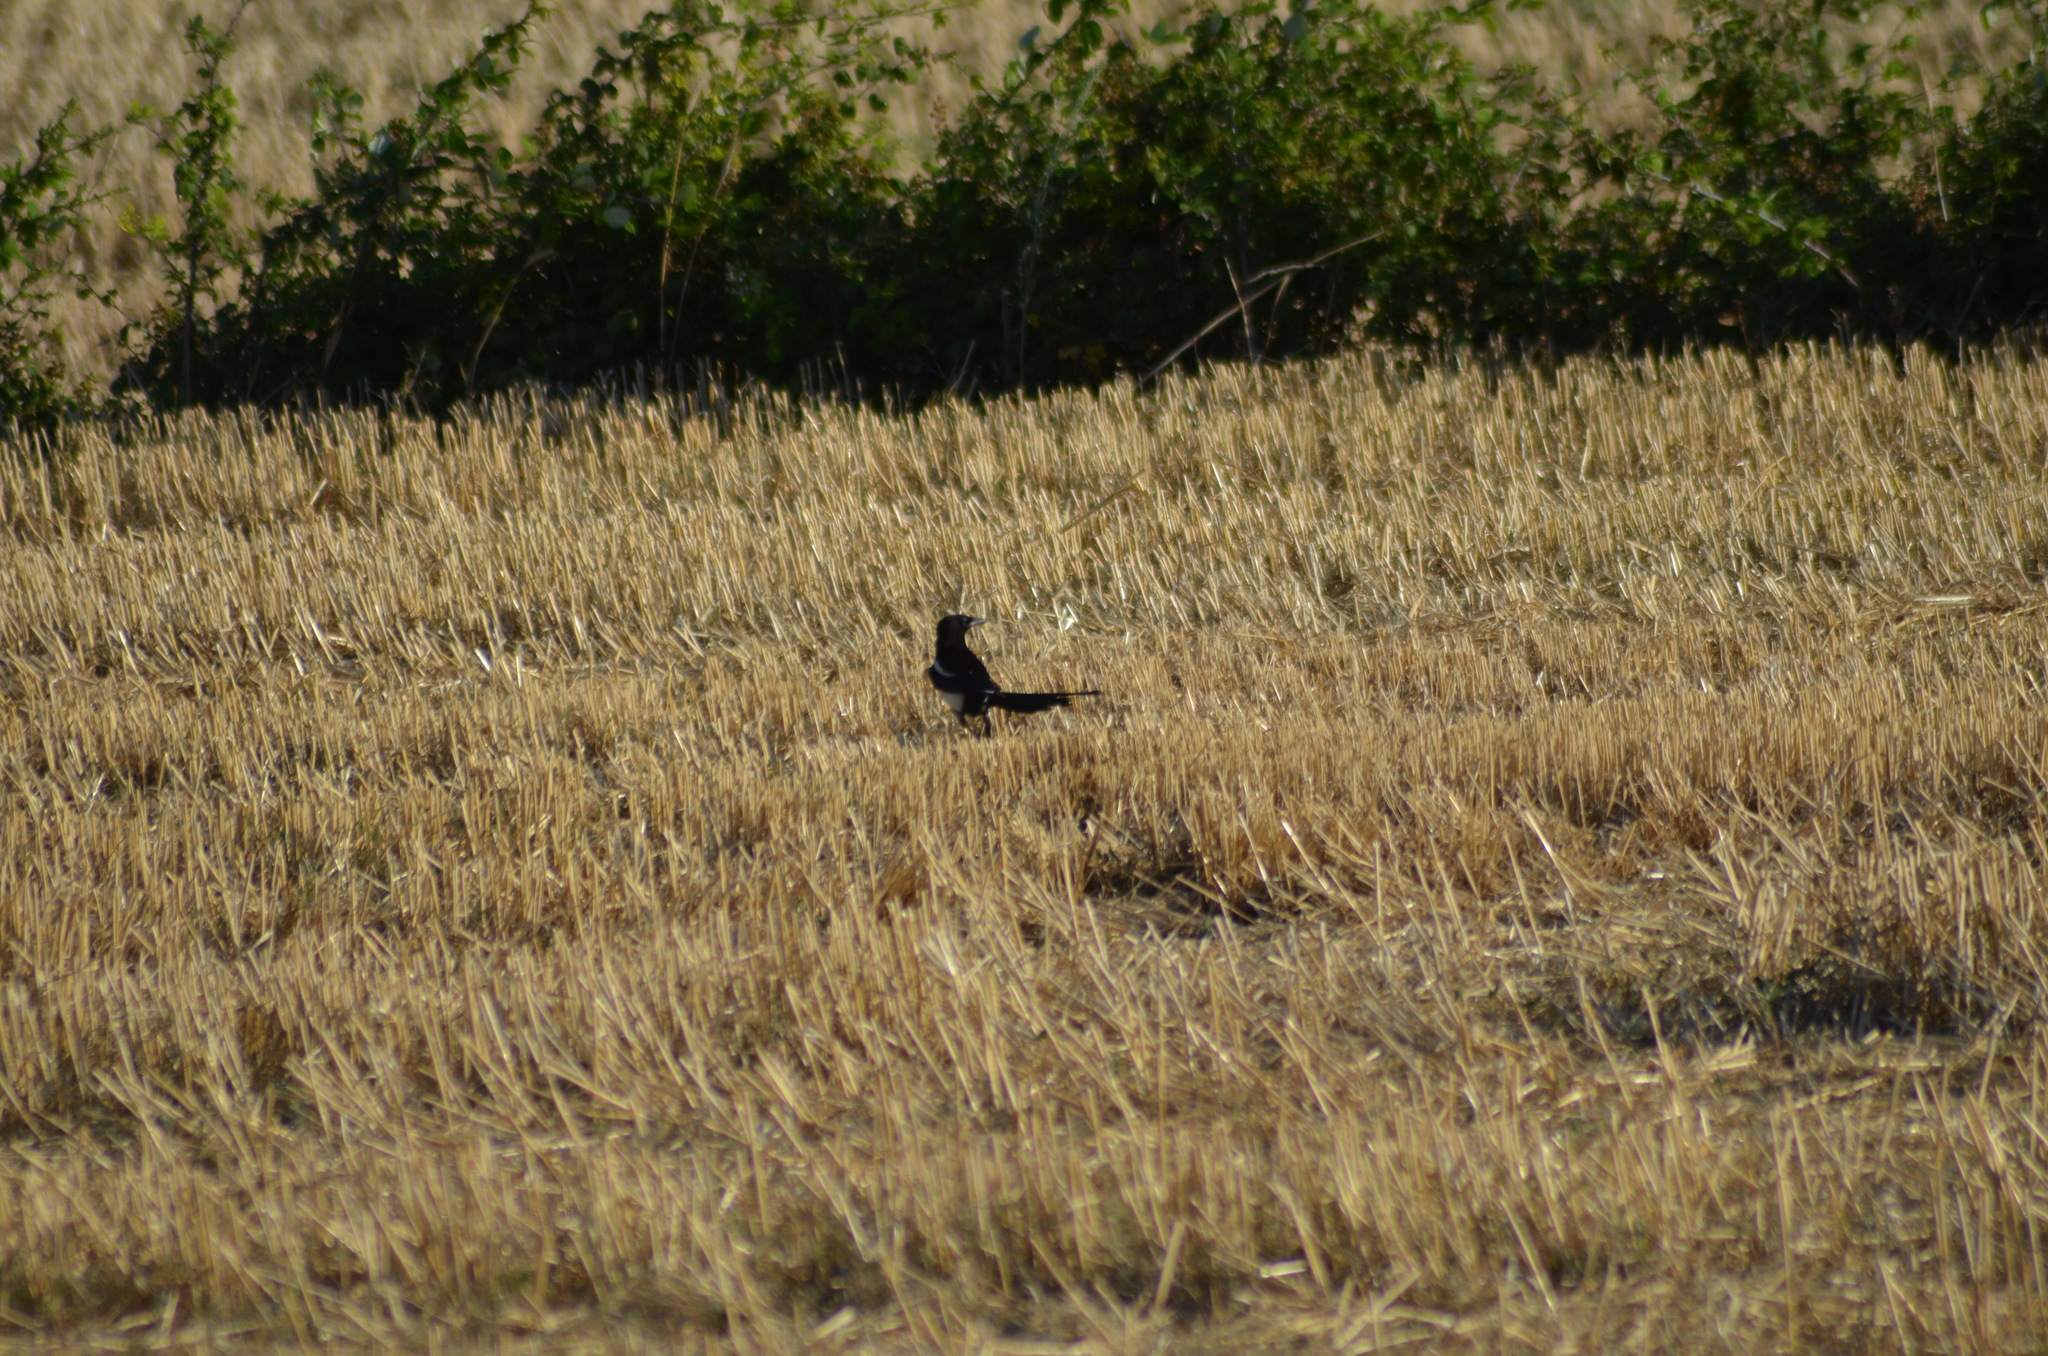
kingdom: Animalia
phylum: Chordata
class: Aves
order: Passeriformes
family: Corvidae
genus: Pica
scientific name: Pica pica
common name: Eurasian magpie
